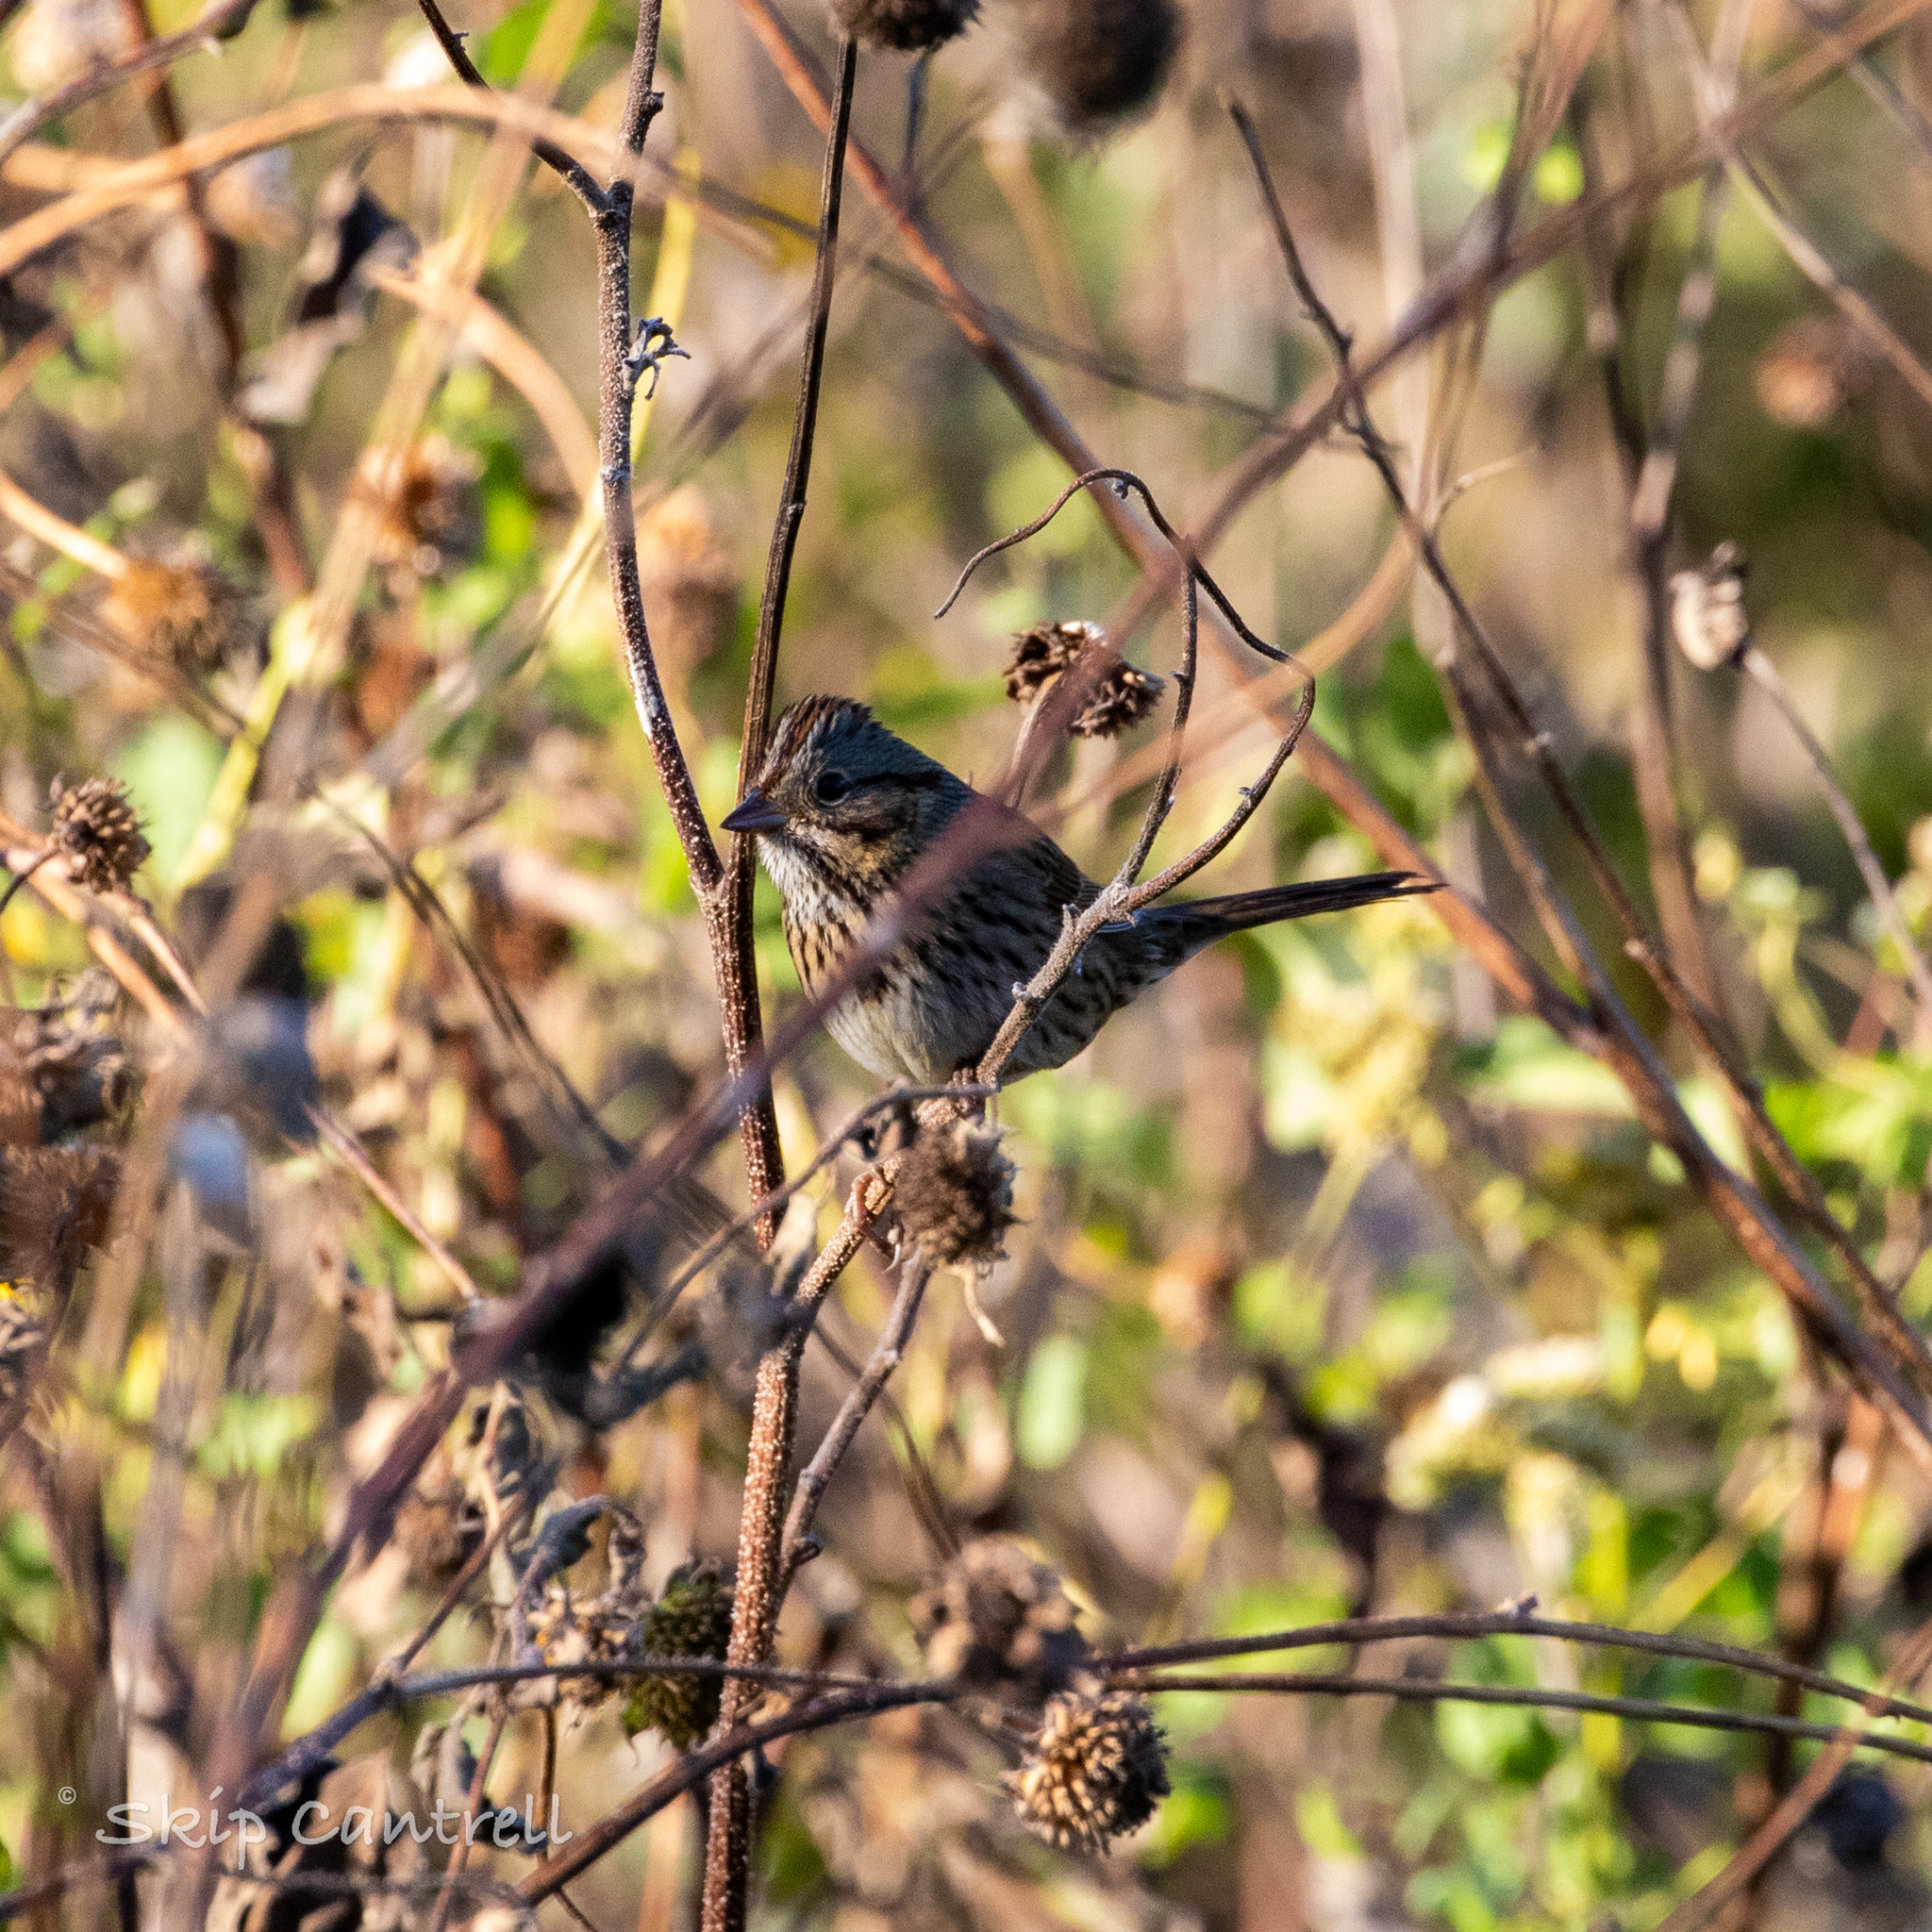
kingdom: Animalia
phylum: Chordata
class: Aves
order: Passeriformes
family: Passerellidae
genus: Melospiza
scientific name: Melospiza lincolnii
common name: Lincoln's sparrow
